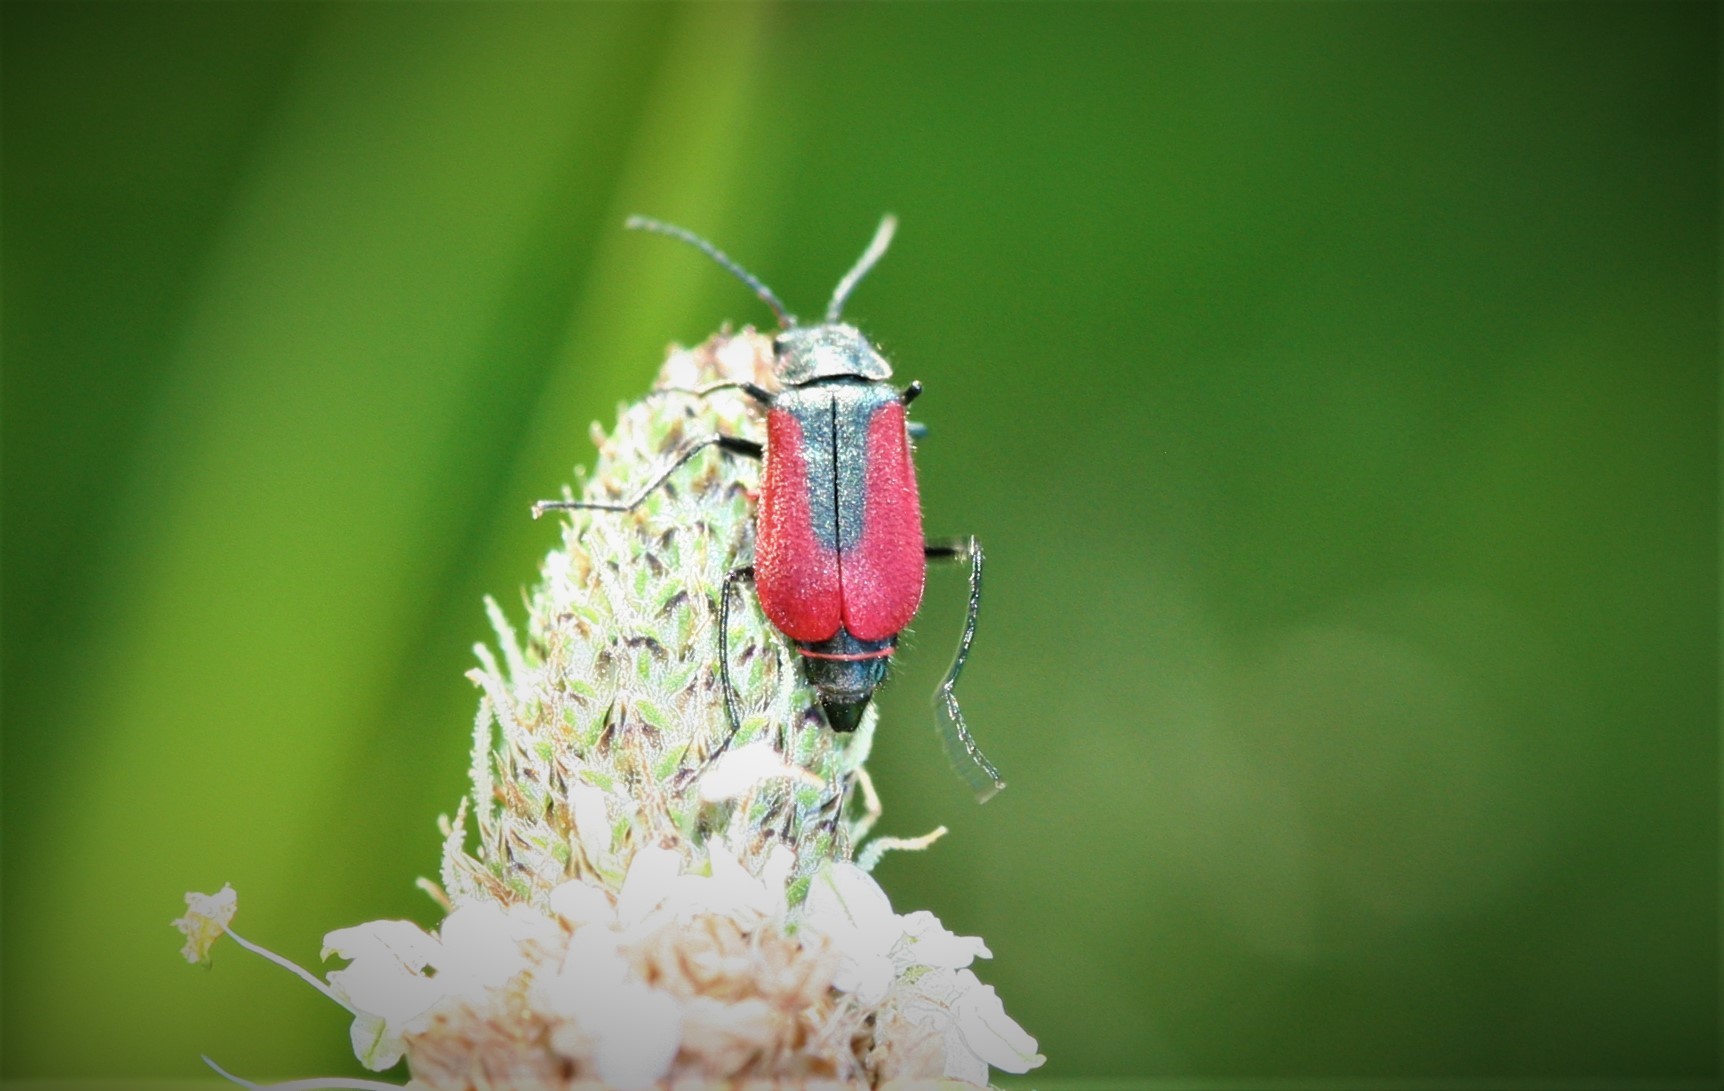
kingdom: Animalia
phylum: Arthropoda
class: Insecta
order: Coleoptera
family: Melyridae
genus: Malachius
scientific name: Malachius aeneus
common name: Scarlet malachite beetle
